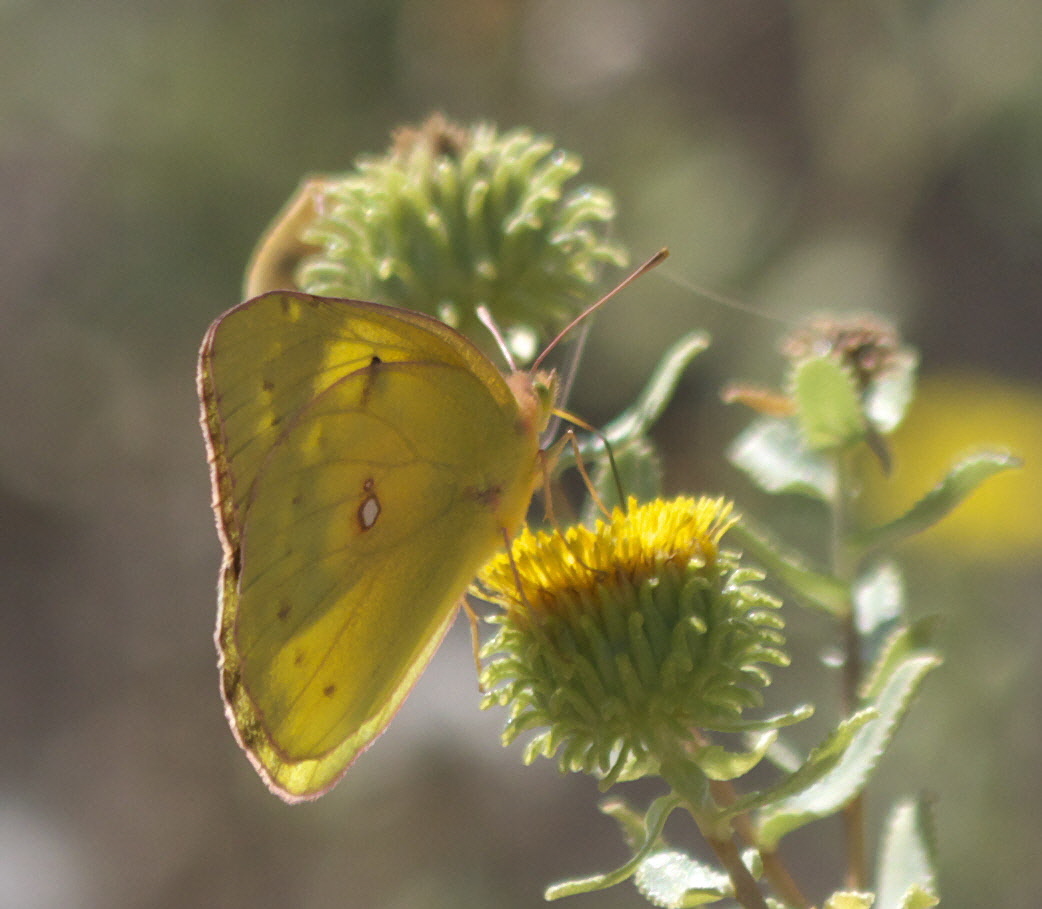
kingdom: Animalia
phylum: Arthropoda
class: Insecta
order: Lepidoptera
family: Pieridae
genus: Colias
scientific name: Colias eurytheme
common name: Alfalfa butterfly
